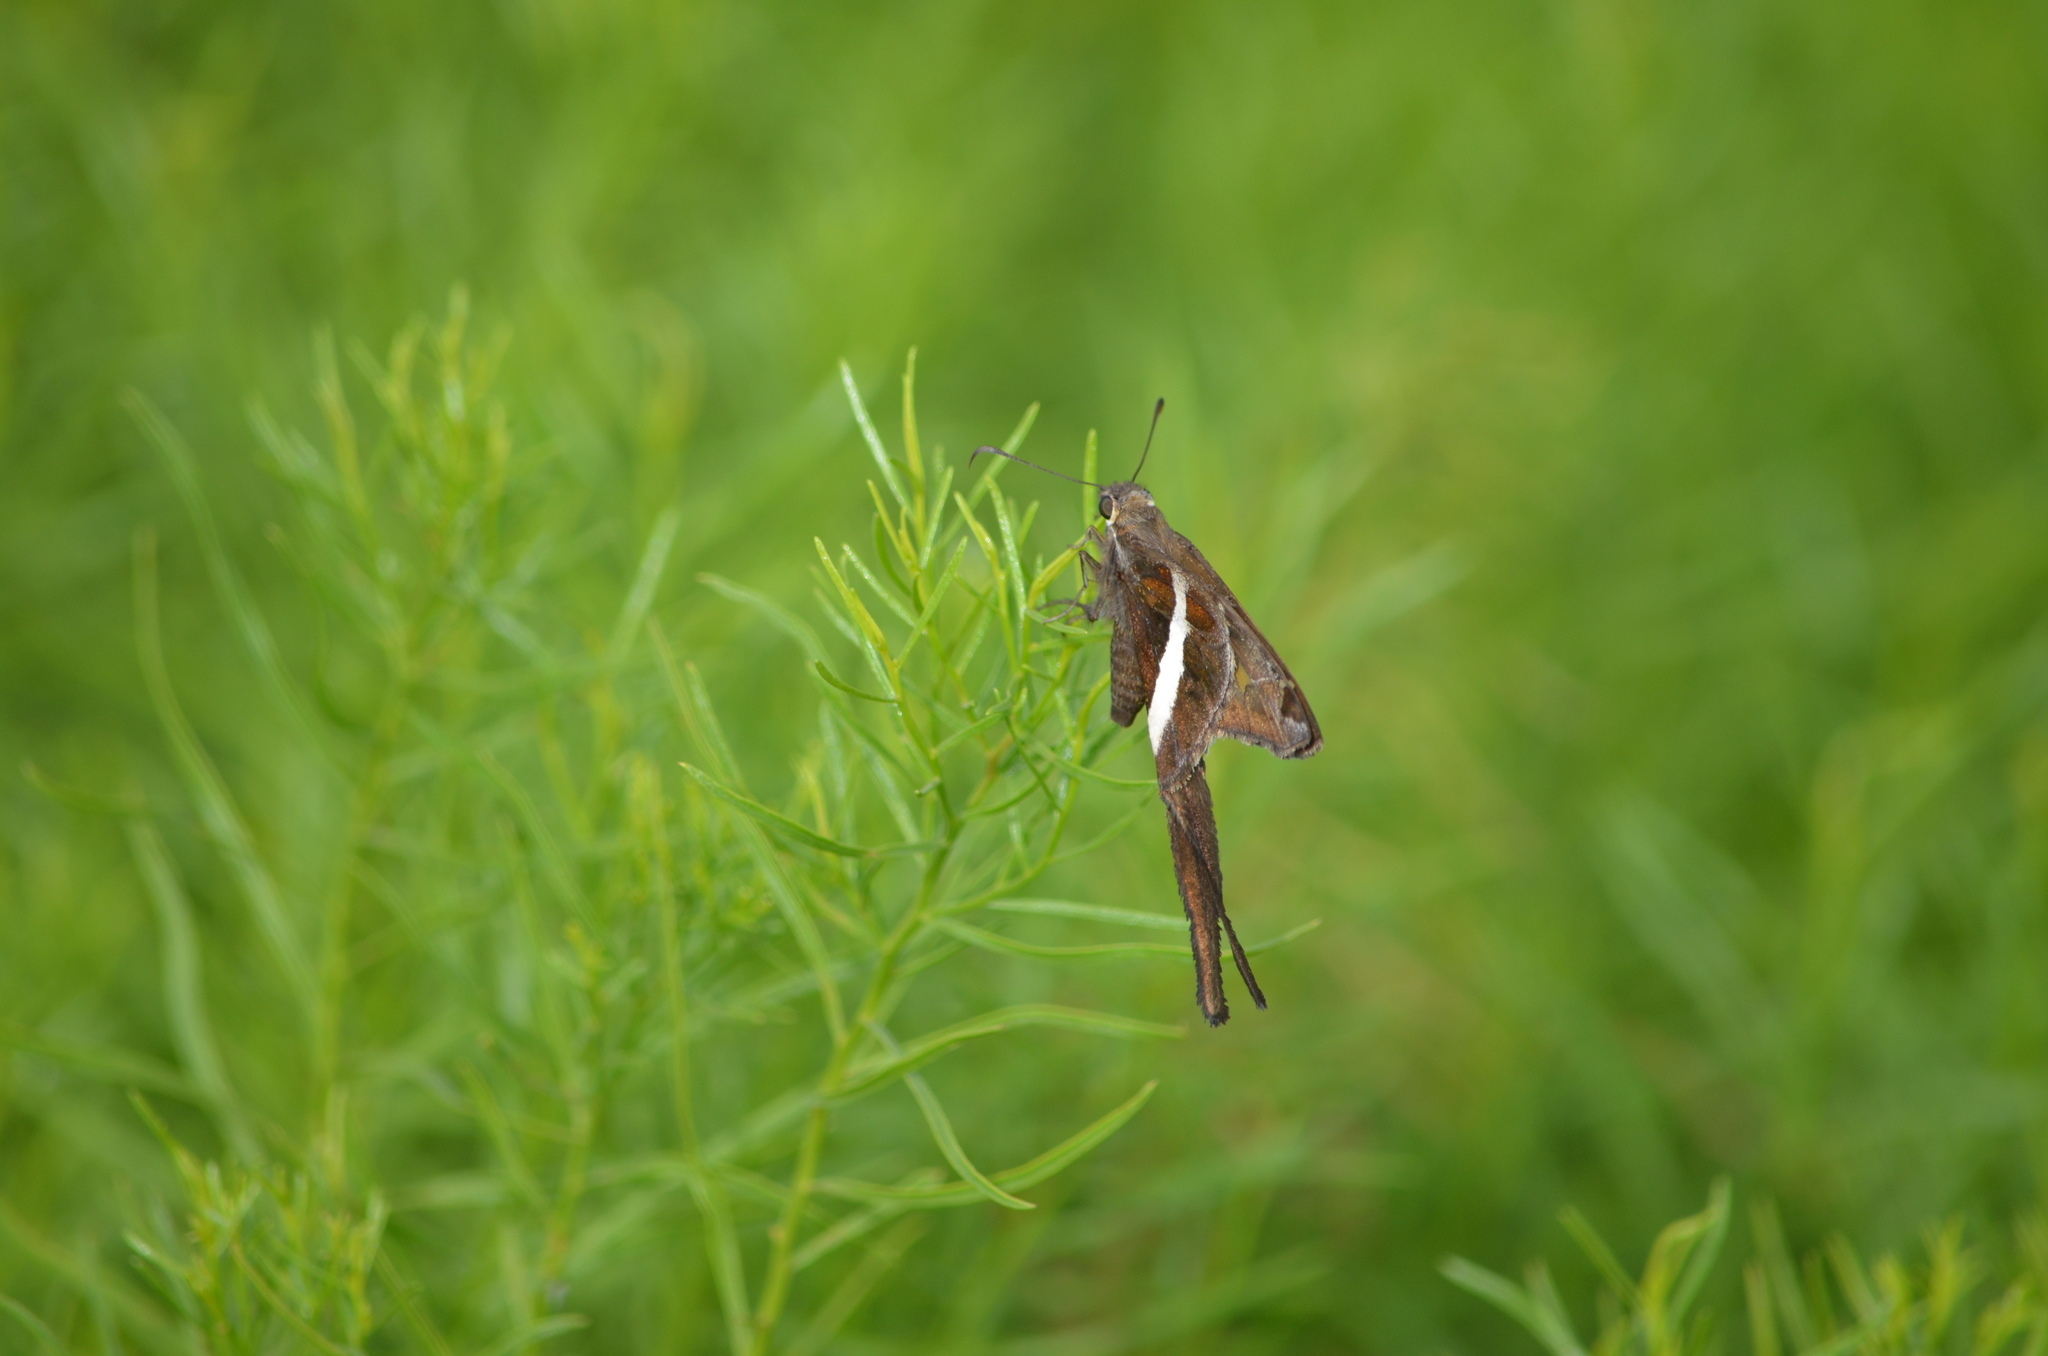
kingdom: Animalia
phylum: Arthropoda
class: Insecta
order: Lepidoptera
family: Hesperiidae
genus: Chioides
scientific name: Chioides catillus
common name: Silverbanded skipper
